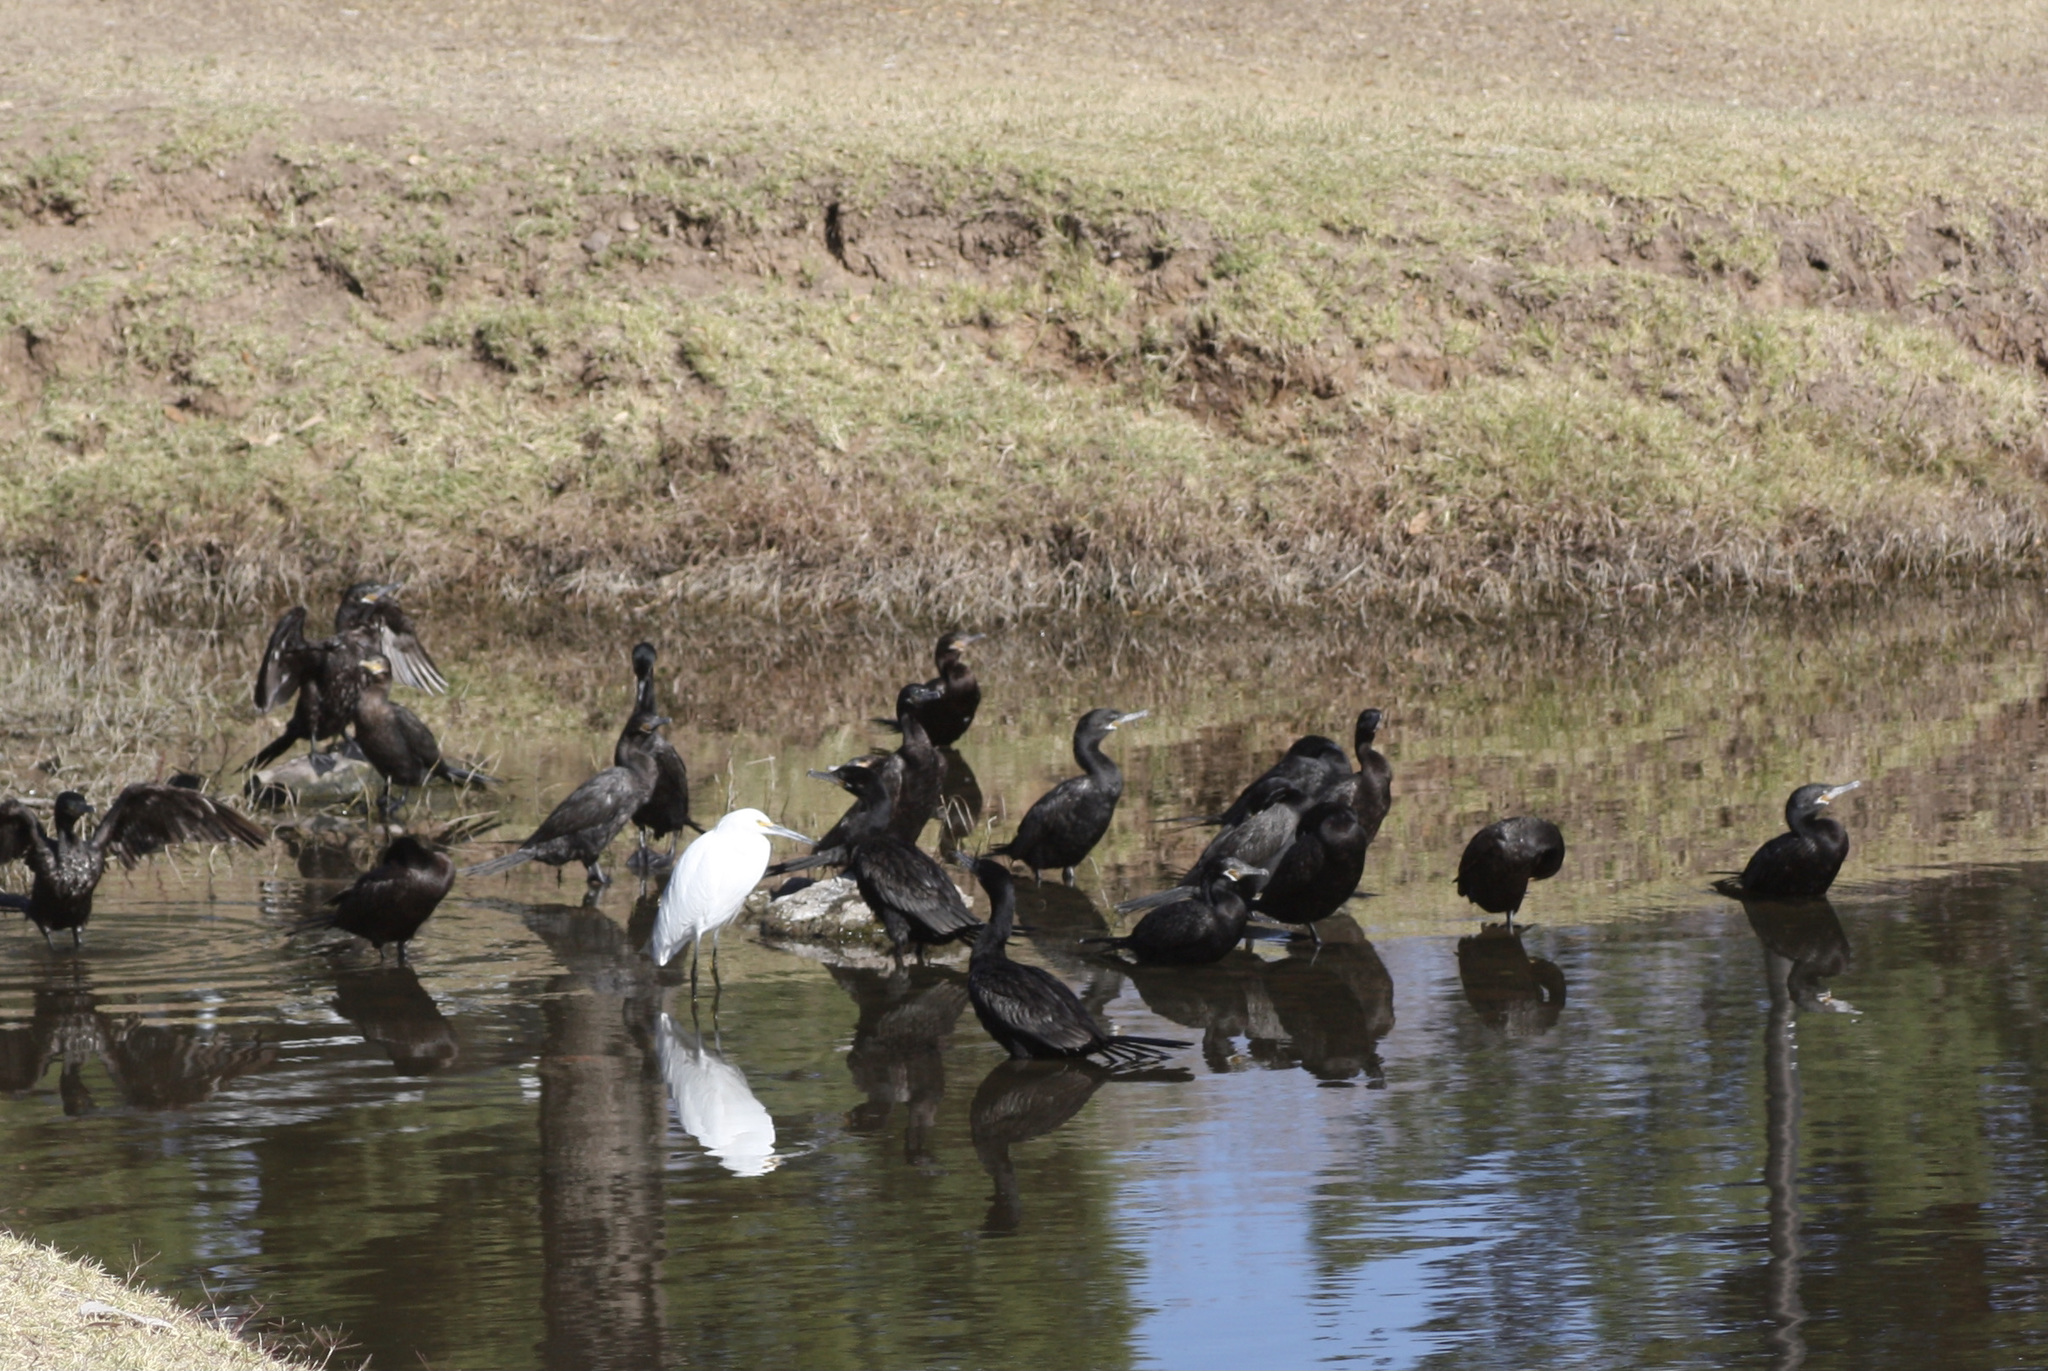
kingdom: Animalia
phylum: Chordata
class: Aves
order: Suliformes
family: Phalacrocoracidae
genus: Phalacrocorax
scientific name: Phalacrocorax brasilianus
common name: Neotropic cormorant
